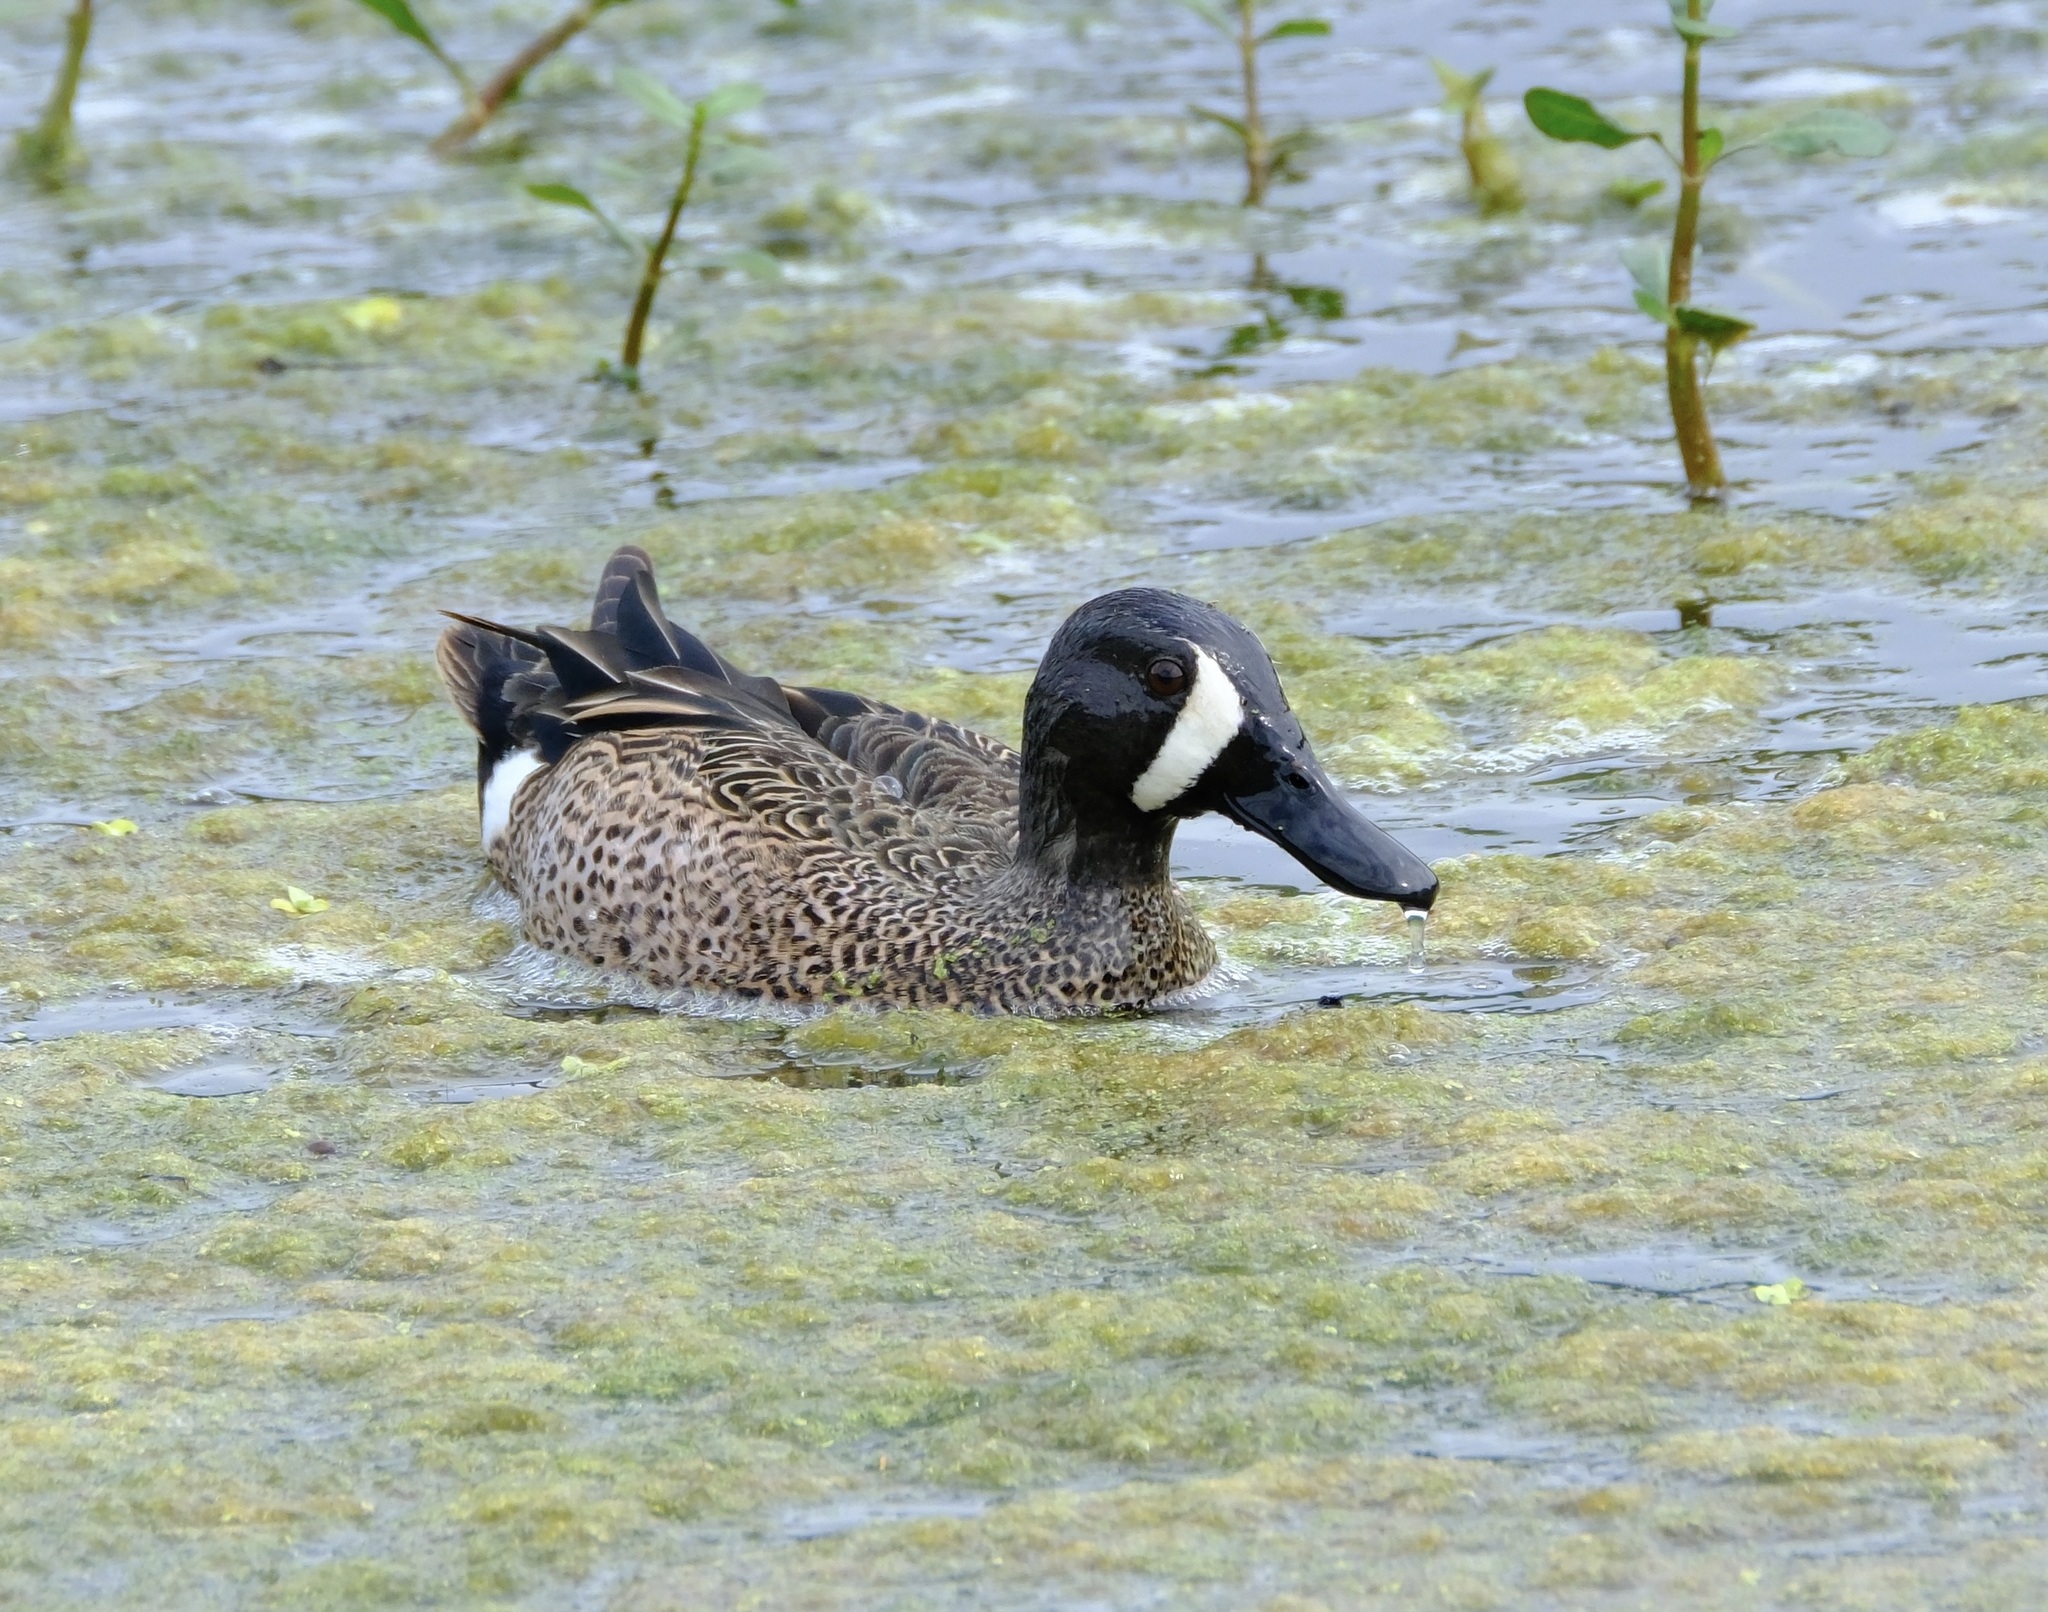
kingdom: Animalia
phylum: Chordata
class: Aves
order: Anseriformes
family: Anatidae
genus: Spatula
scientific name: Spatula discors
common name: Blue-winged teal
